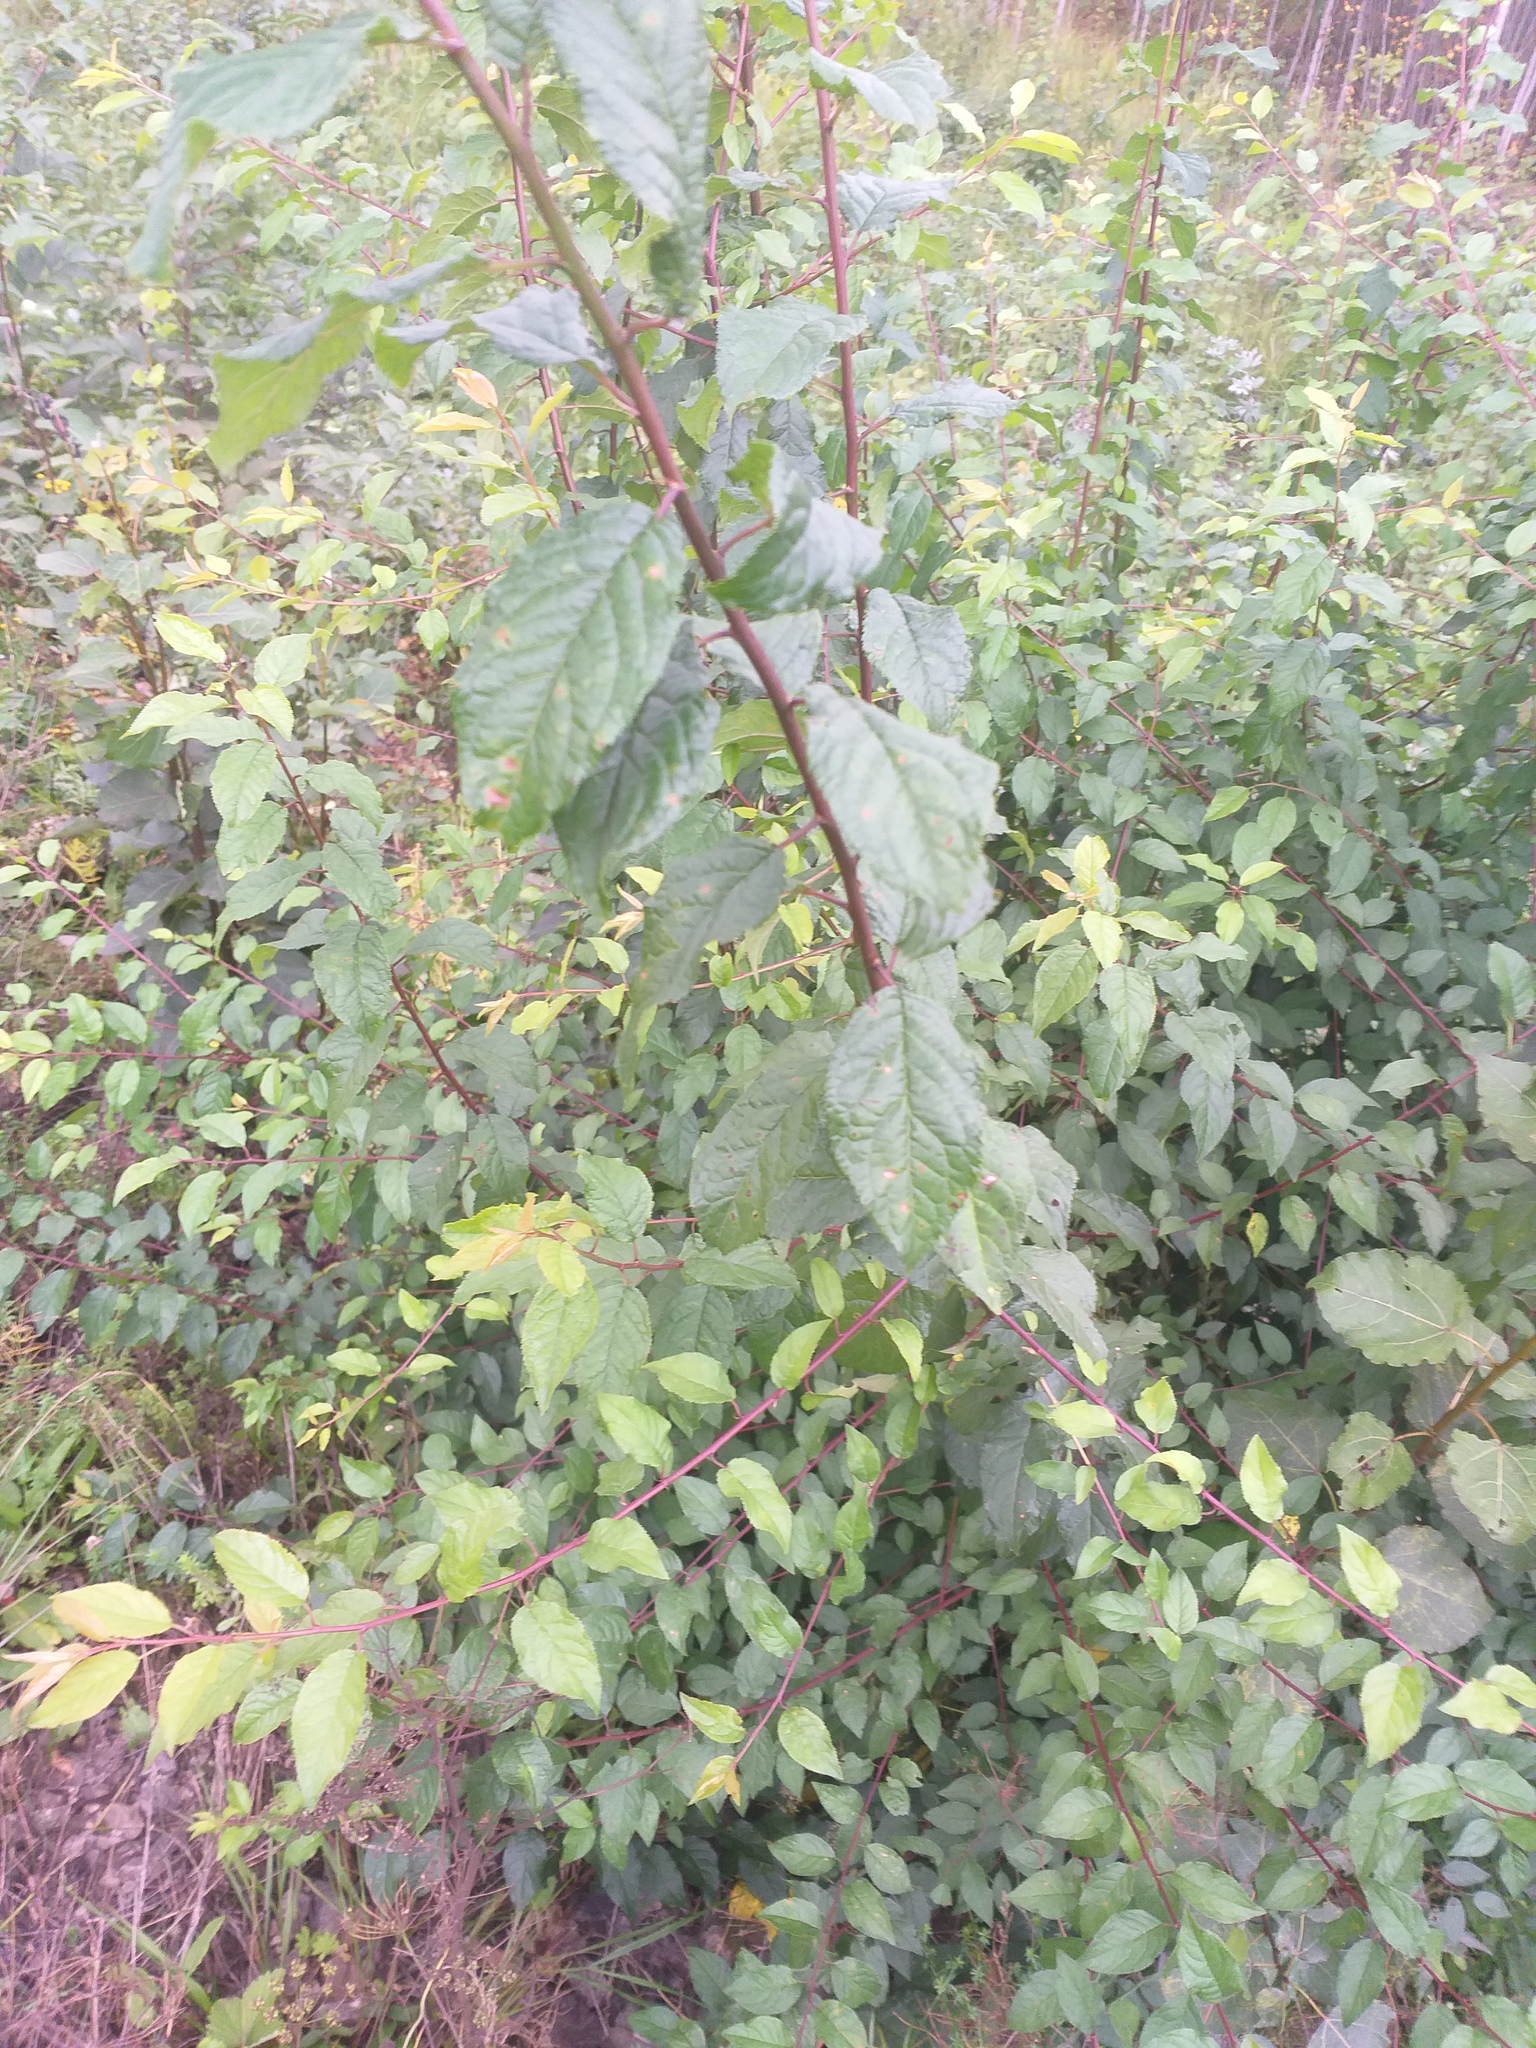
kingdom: Plantae
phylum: Tracheophyta
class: Magnoliopsida
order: Rosales
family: Rosaceae
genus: Prunus
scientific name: Prunus cerasifera
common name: Cherry plum
